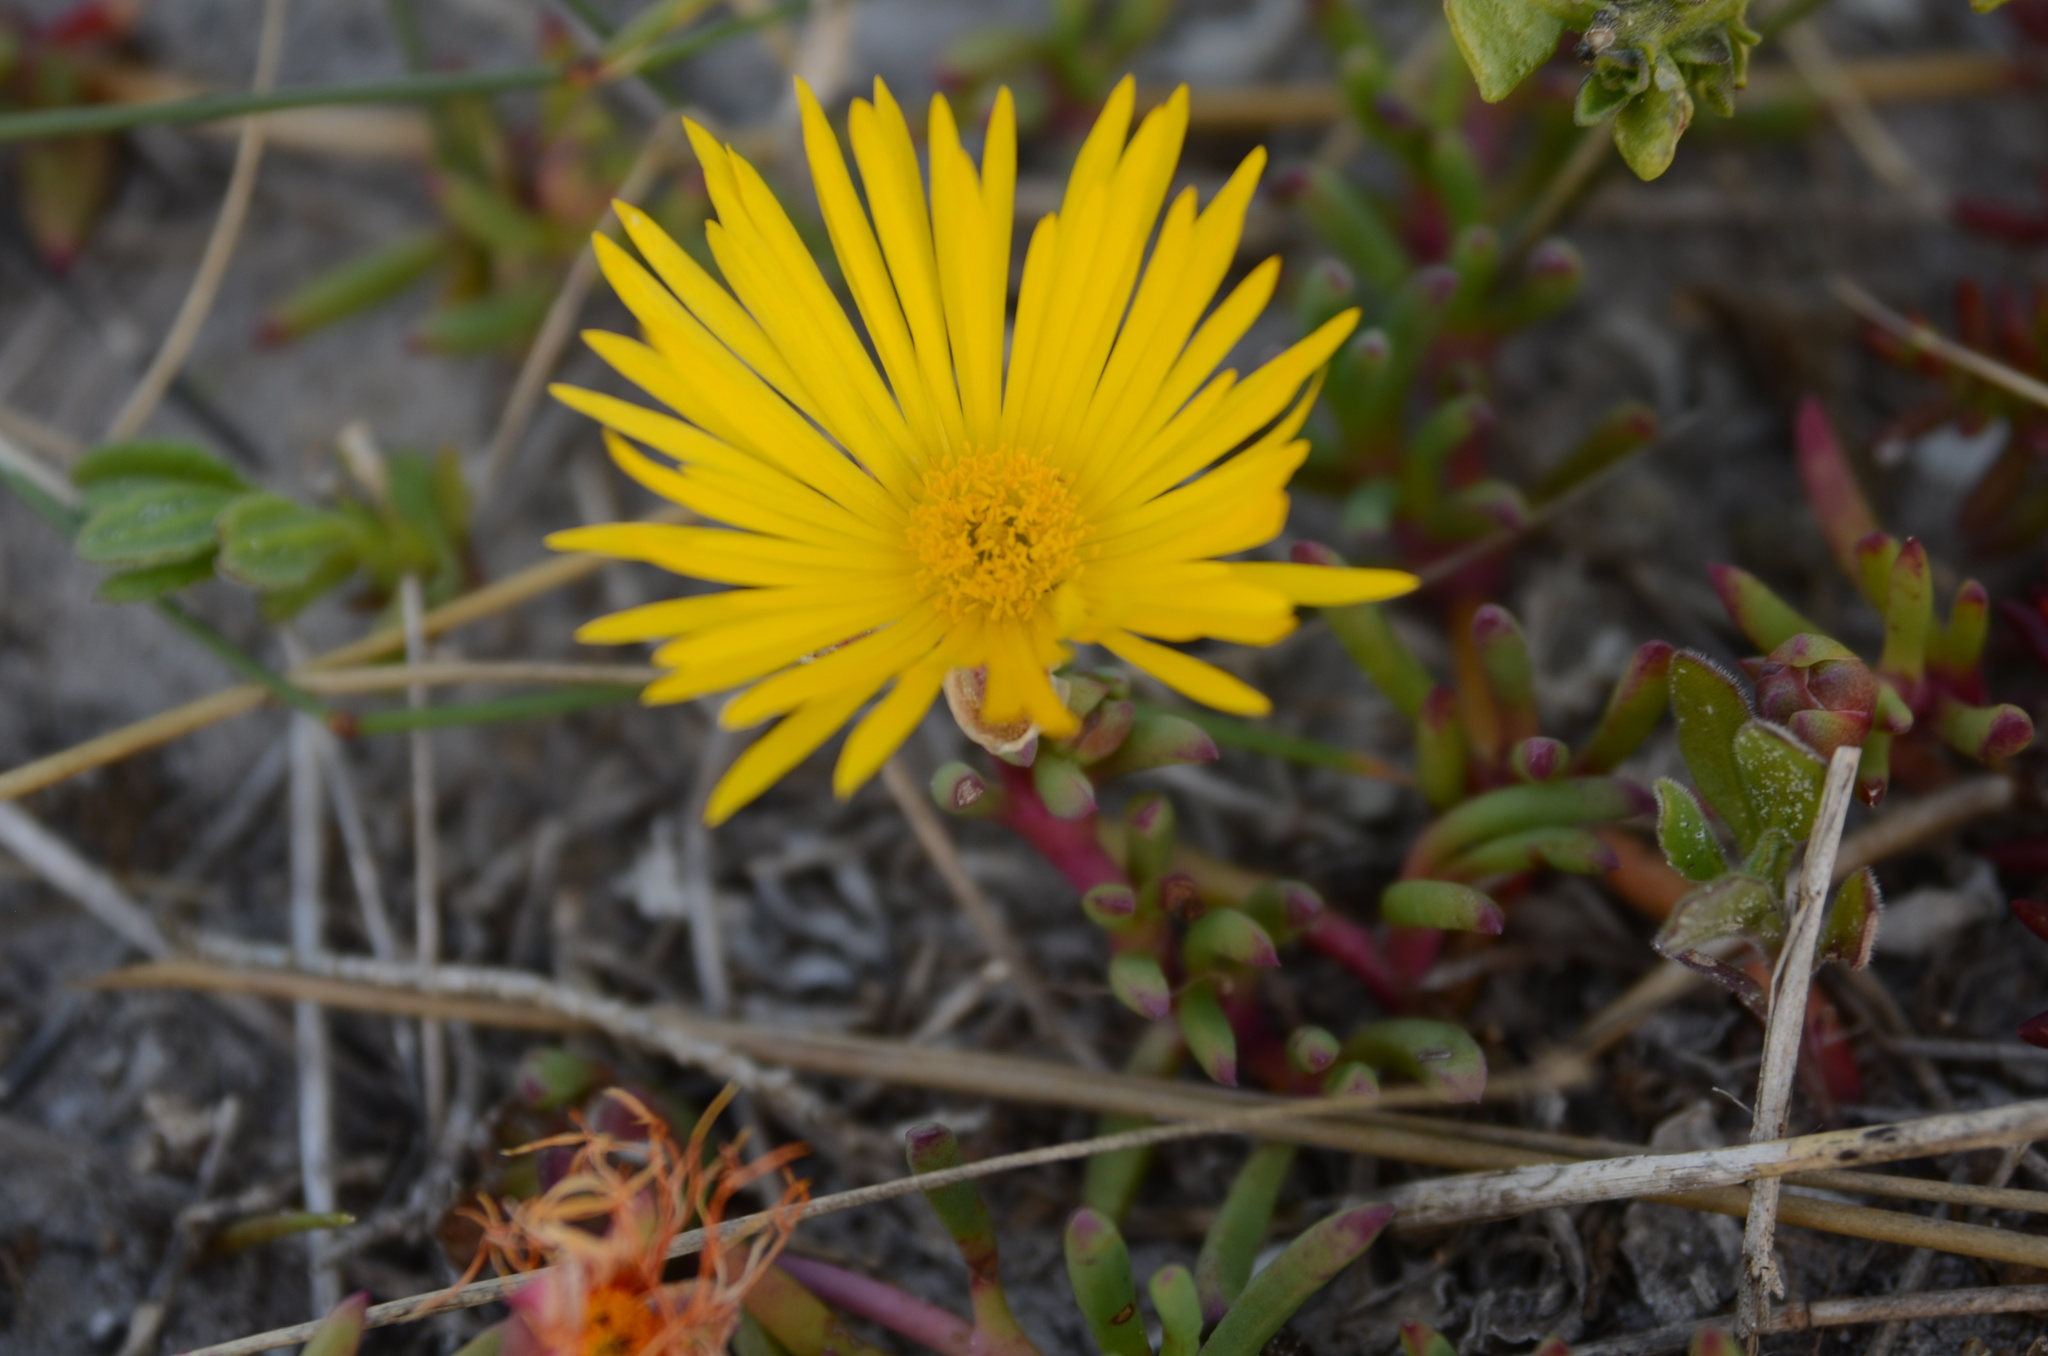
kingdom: Plantae
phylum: Tracheophyta
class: Magnoliopsida
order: Caryophyllales
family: Aizoaceae
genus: Jordaaniella
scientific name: Jordaaniella dubia
